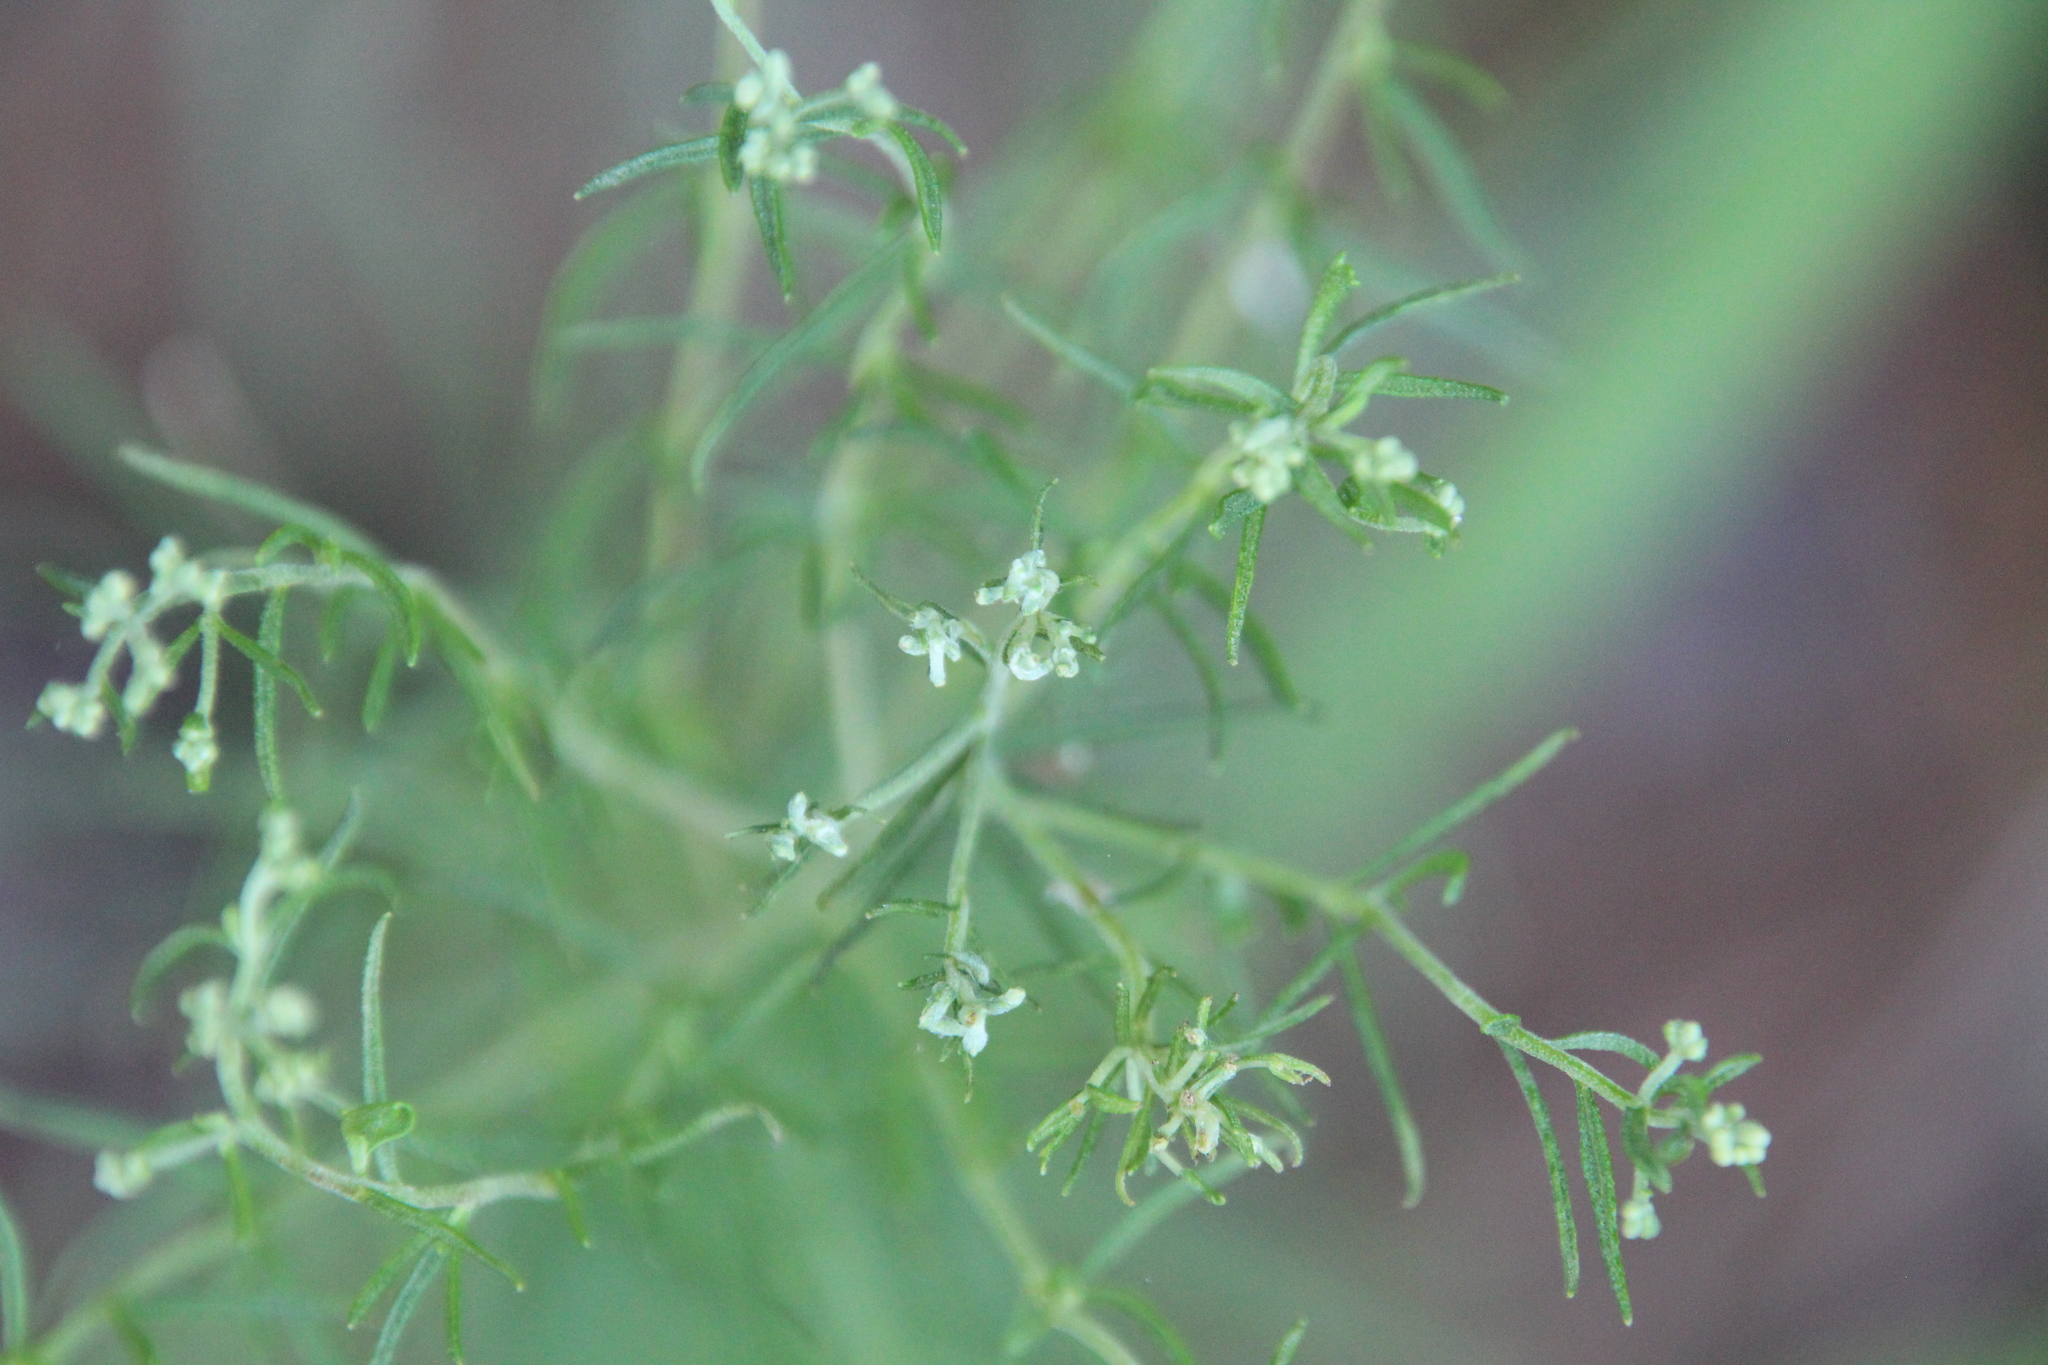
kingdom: Plantae
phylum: Tracheophyta
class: Magnoliopsida
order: Asterales
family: Asteraceae
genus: Eupatorium
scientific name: Eupatorium hyssopifolium
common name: Hyssop-leaf thoroughwort
